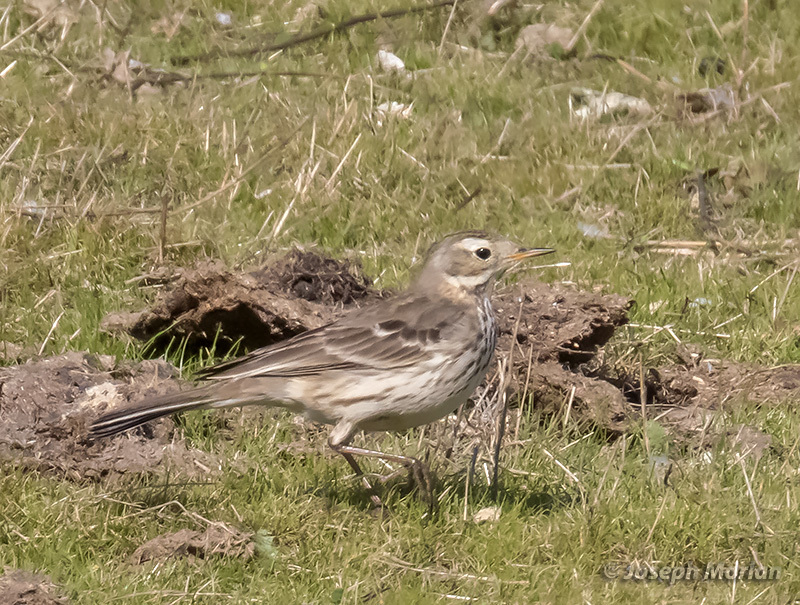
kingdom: Animalia
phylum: Chordata
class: Aves
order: Passeriformes
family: Motacillidae
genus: Anthus
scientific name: Anthus rubescens
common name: Buff-bellied pipit
